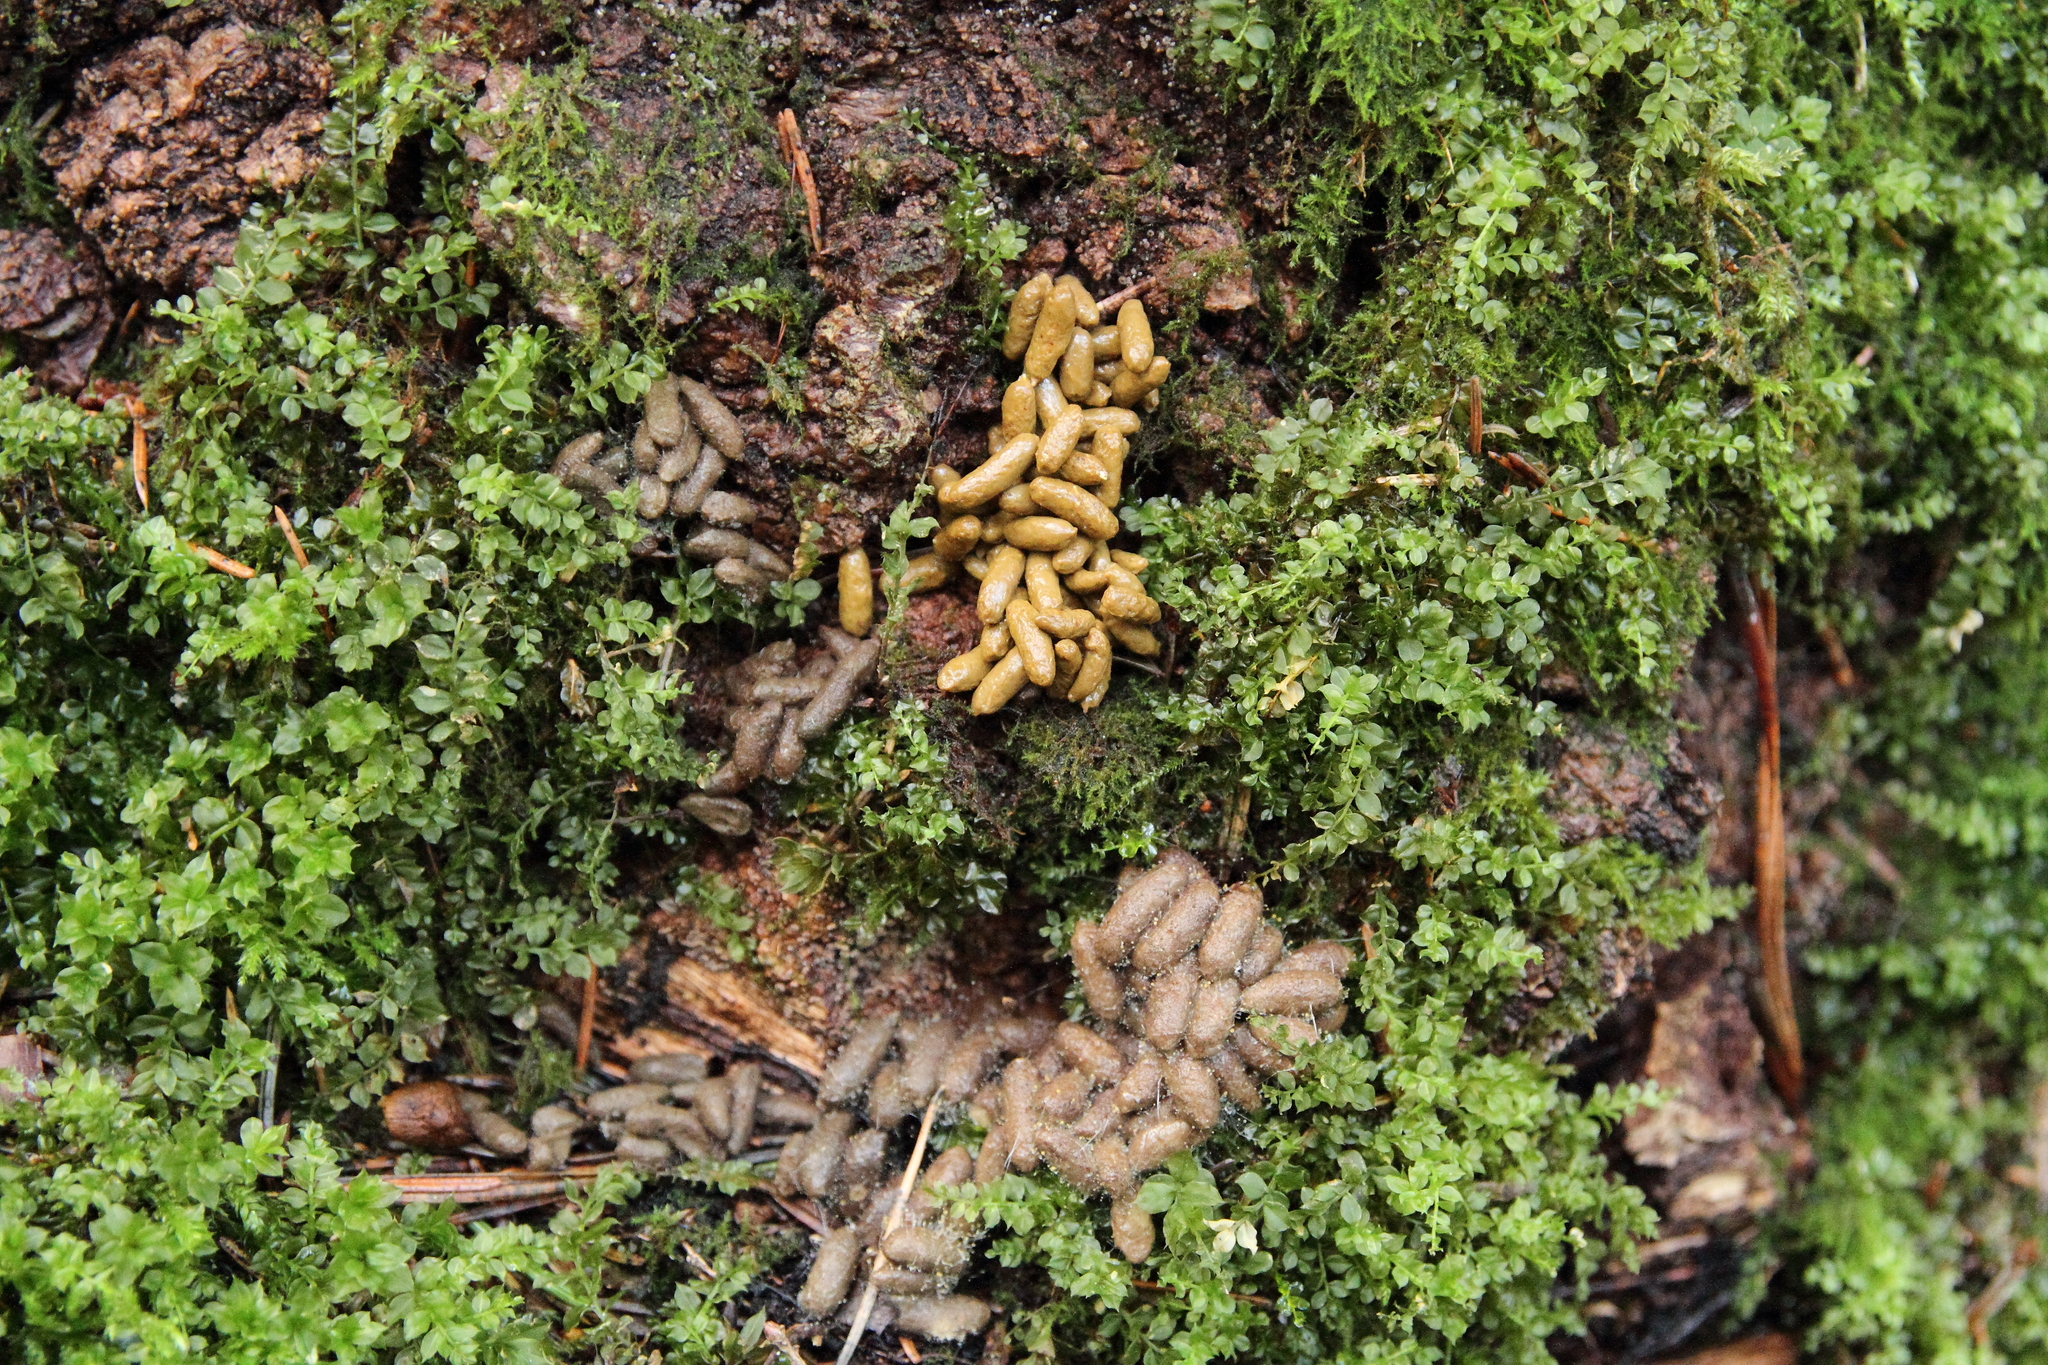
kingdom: Animalia
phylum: Chordata
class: Mammalia
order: Rodentia
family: Sciuridae
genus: Pteromys
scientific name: Pteromys volans
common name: Siberian flying squirrel
